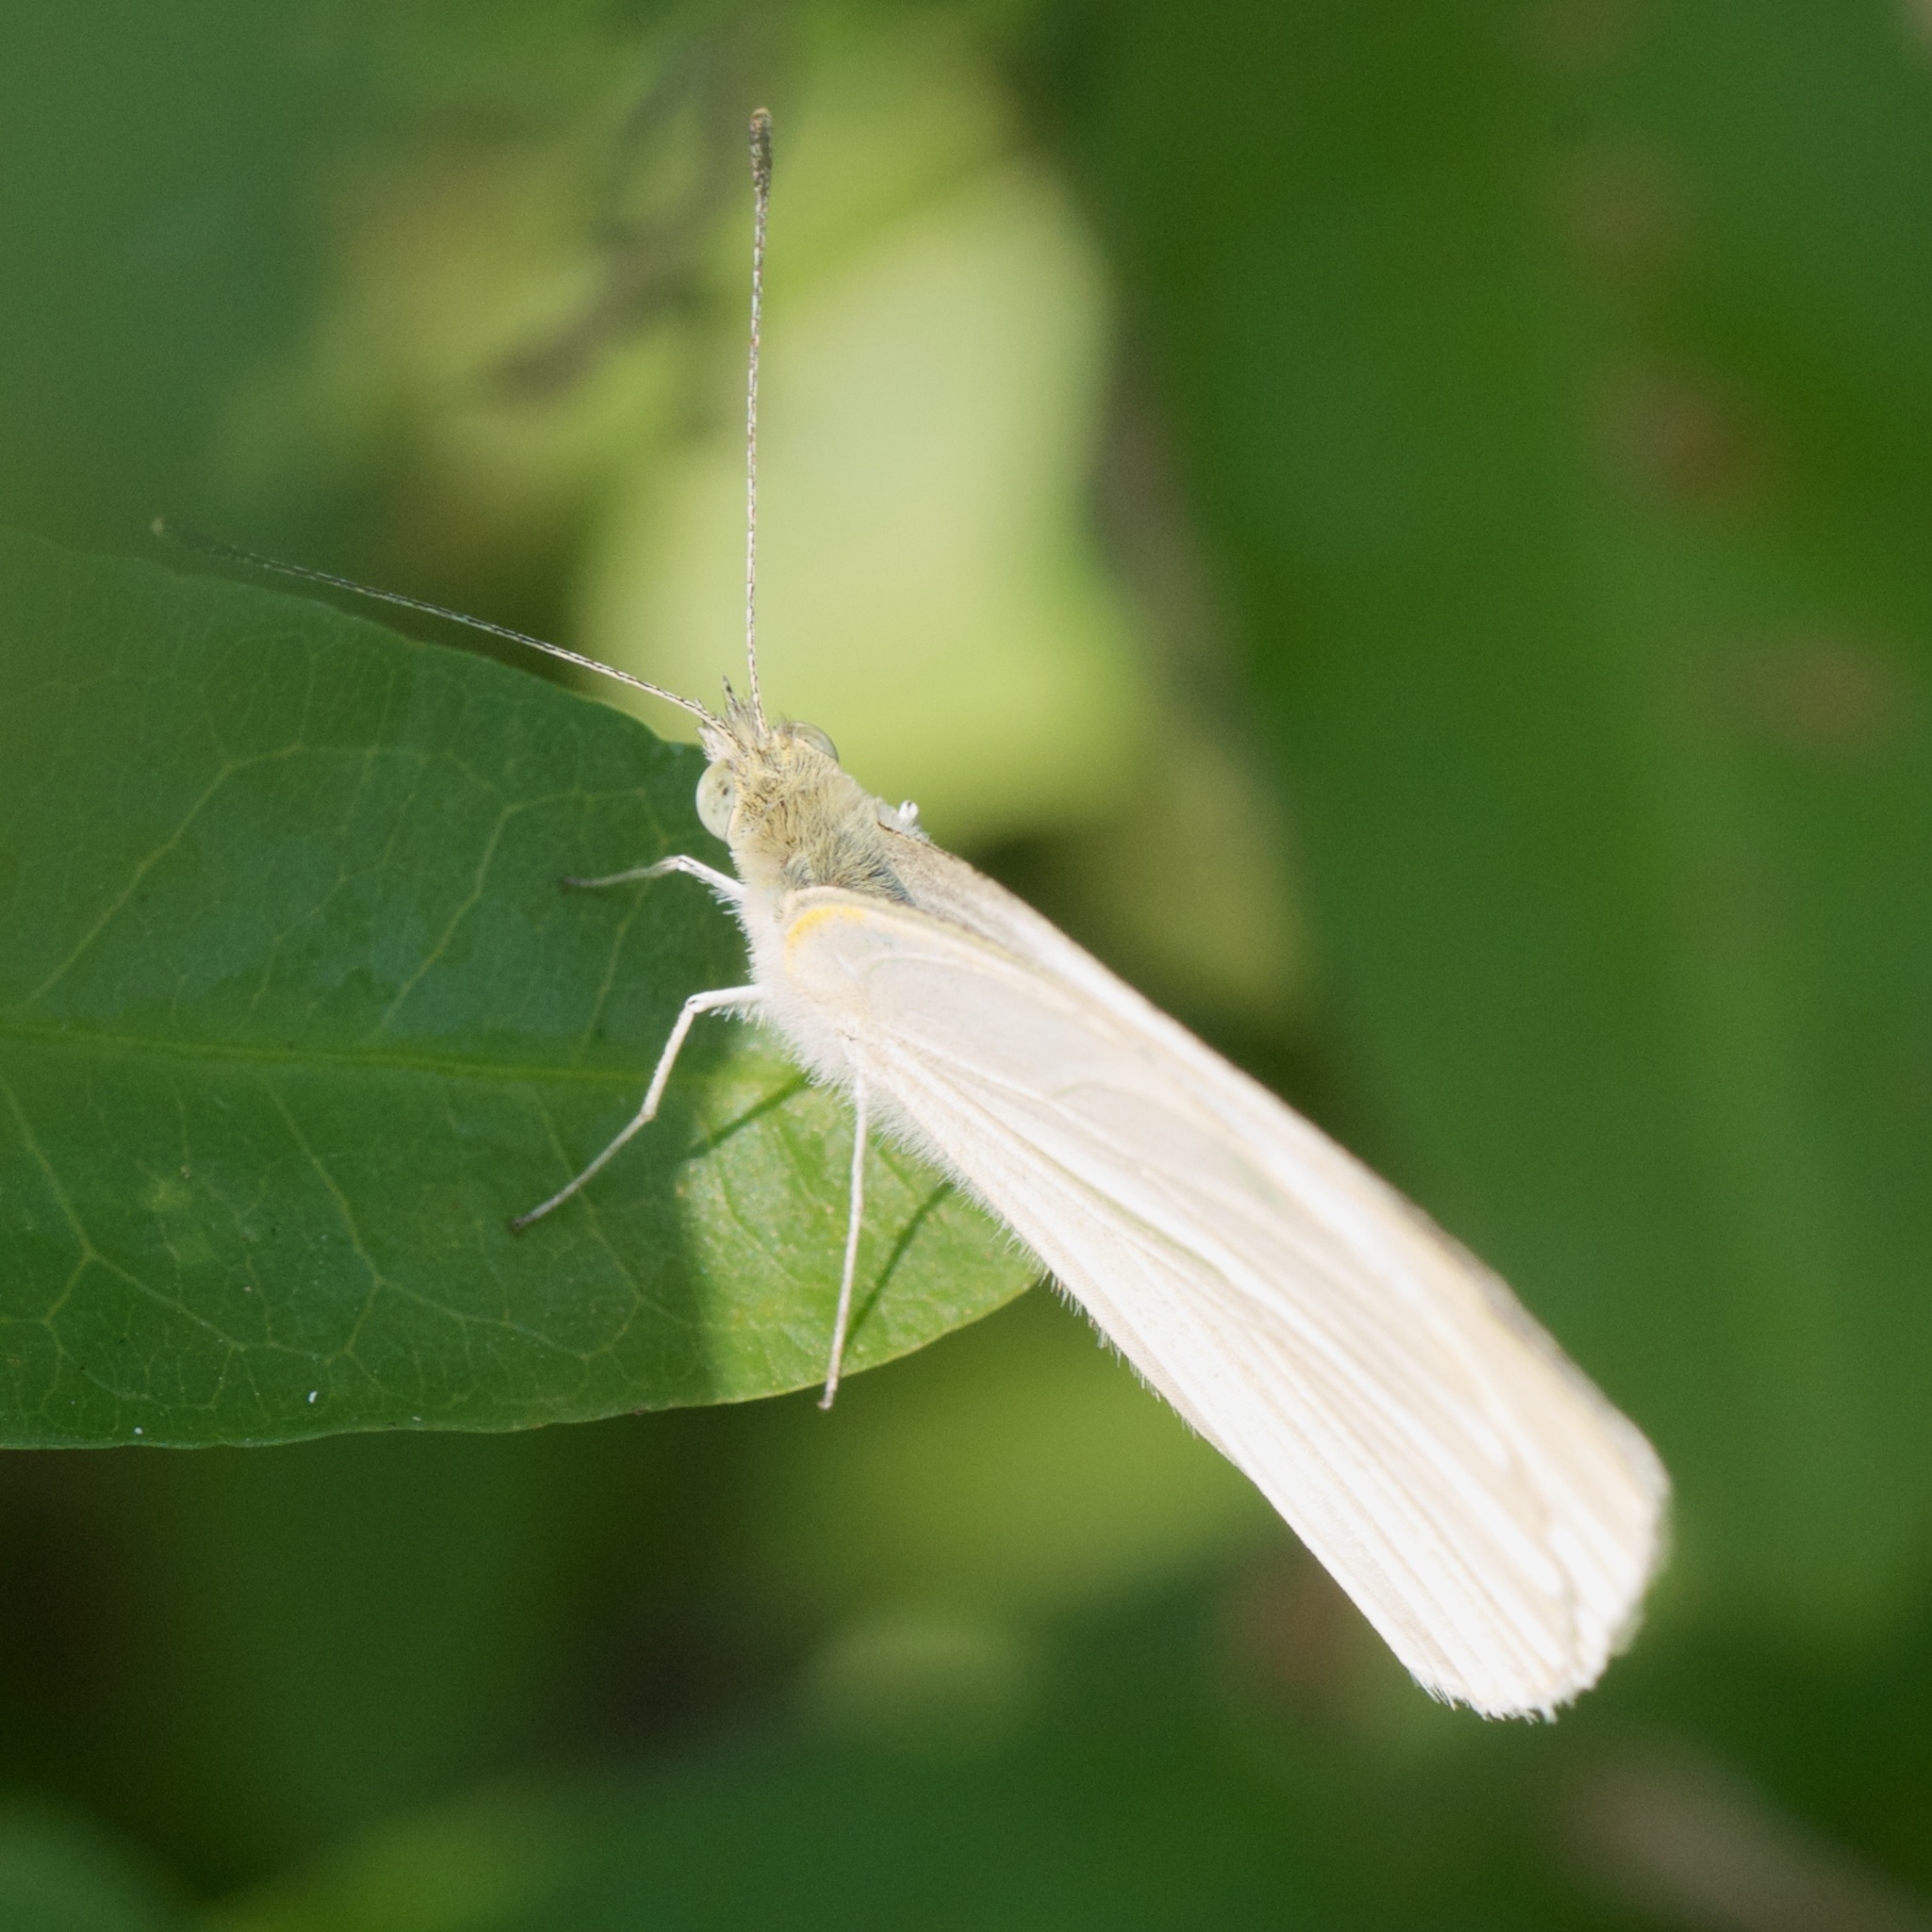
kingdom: Animalia
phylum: Arthropoda
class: Insecta
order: Lepidoptera
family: Pieridae
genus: Pieris
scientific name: Pieris rapae
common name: Small white
